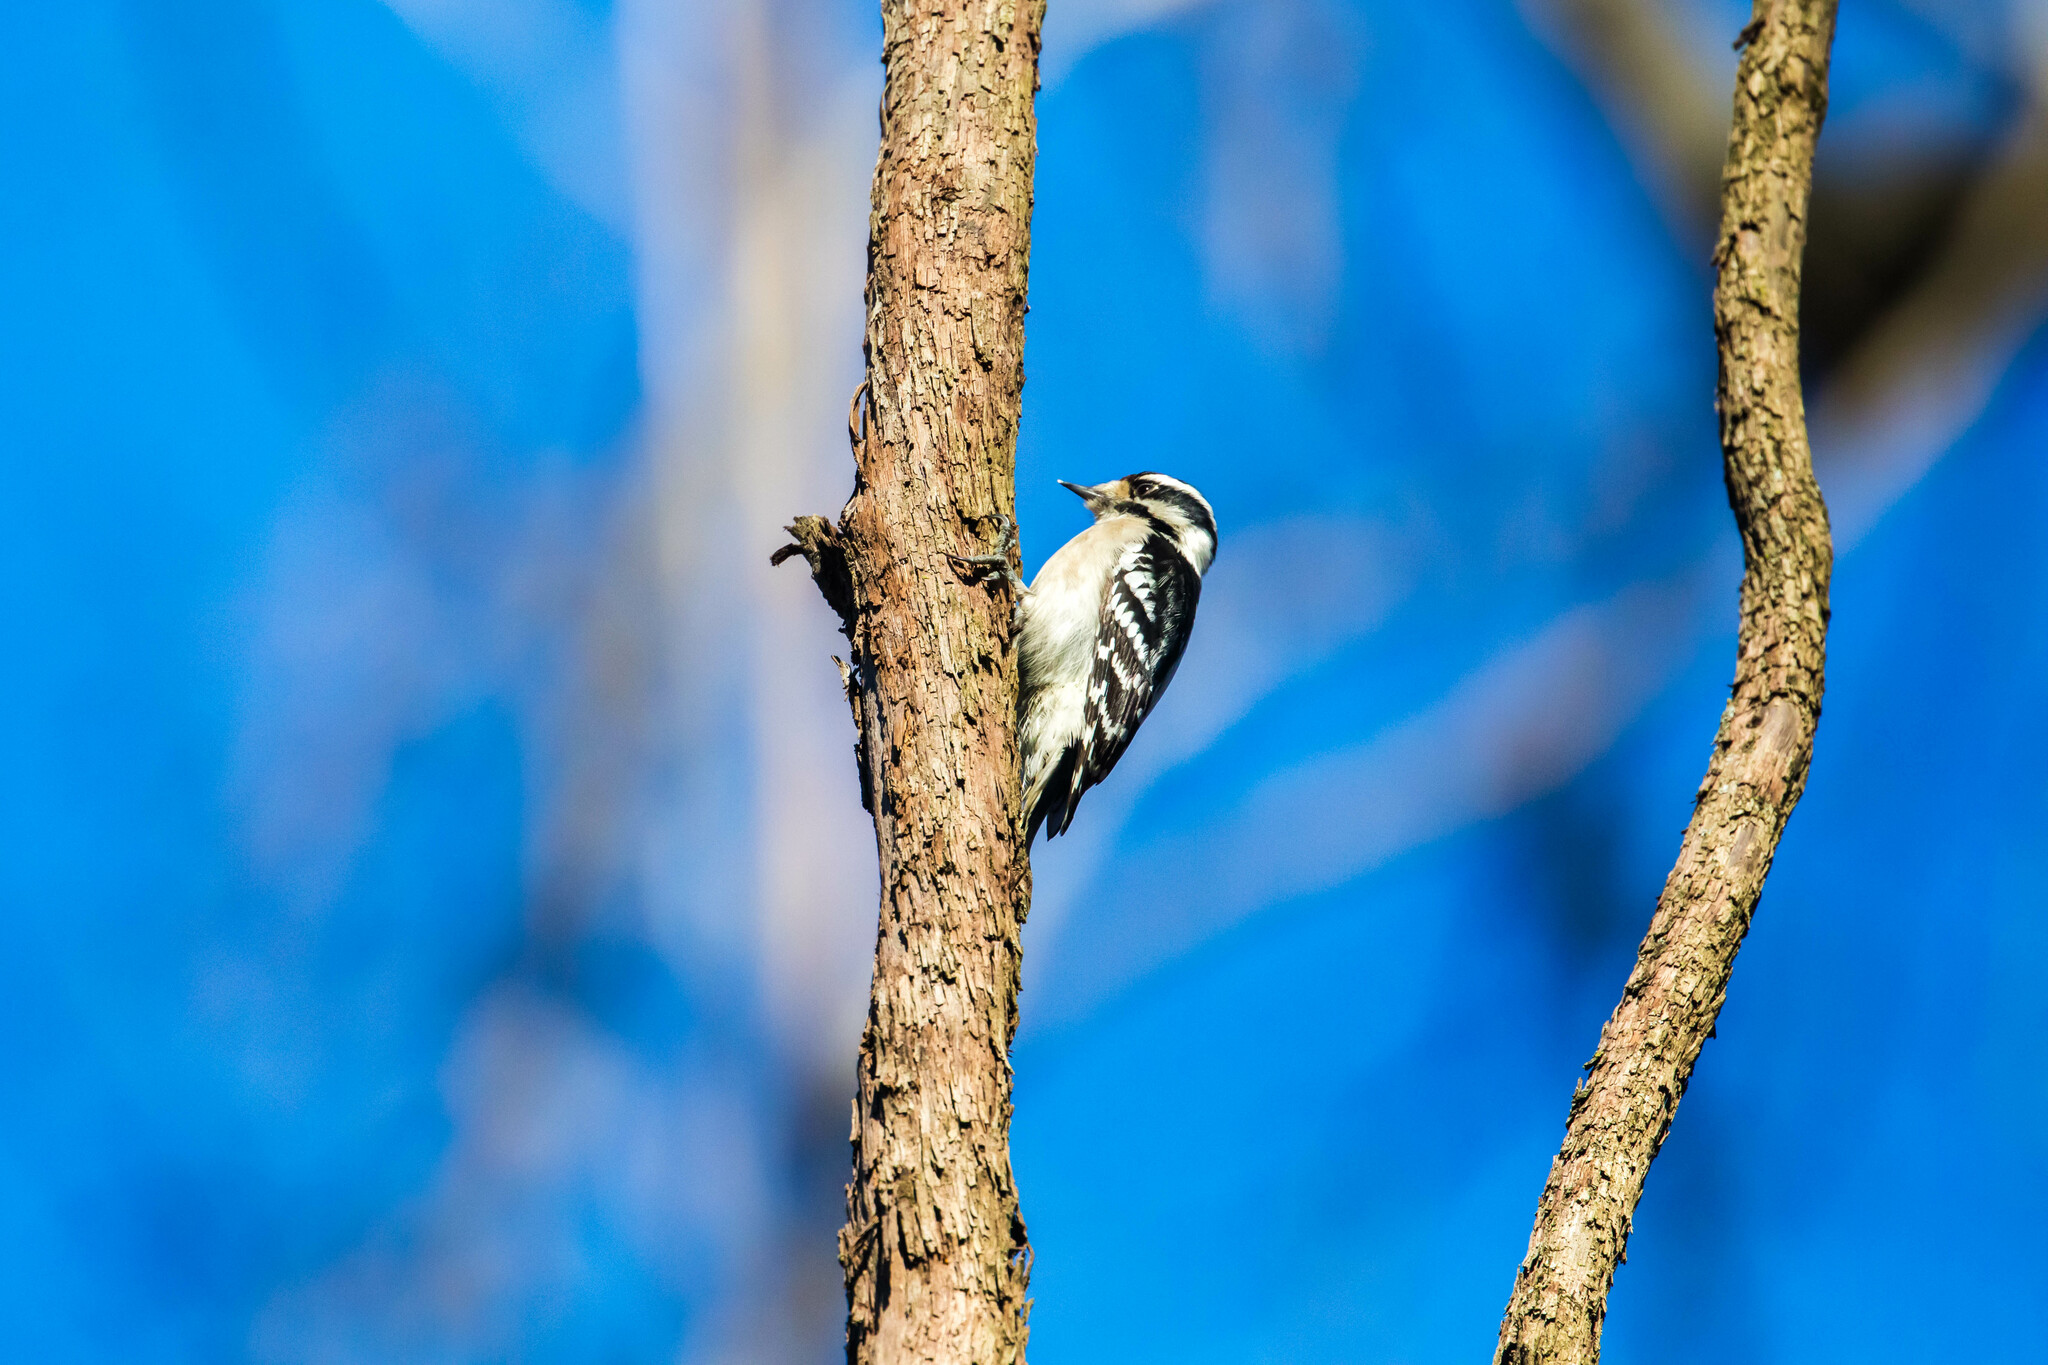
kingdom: Animalia
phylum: Chordata
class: Aves
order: Piciformes
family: Picidae
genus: Dryobates
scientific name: Dryobates pubescens
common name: Downy woodpecker
